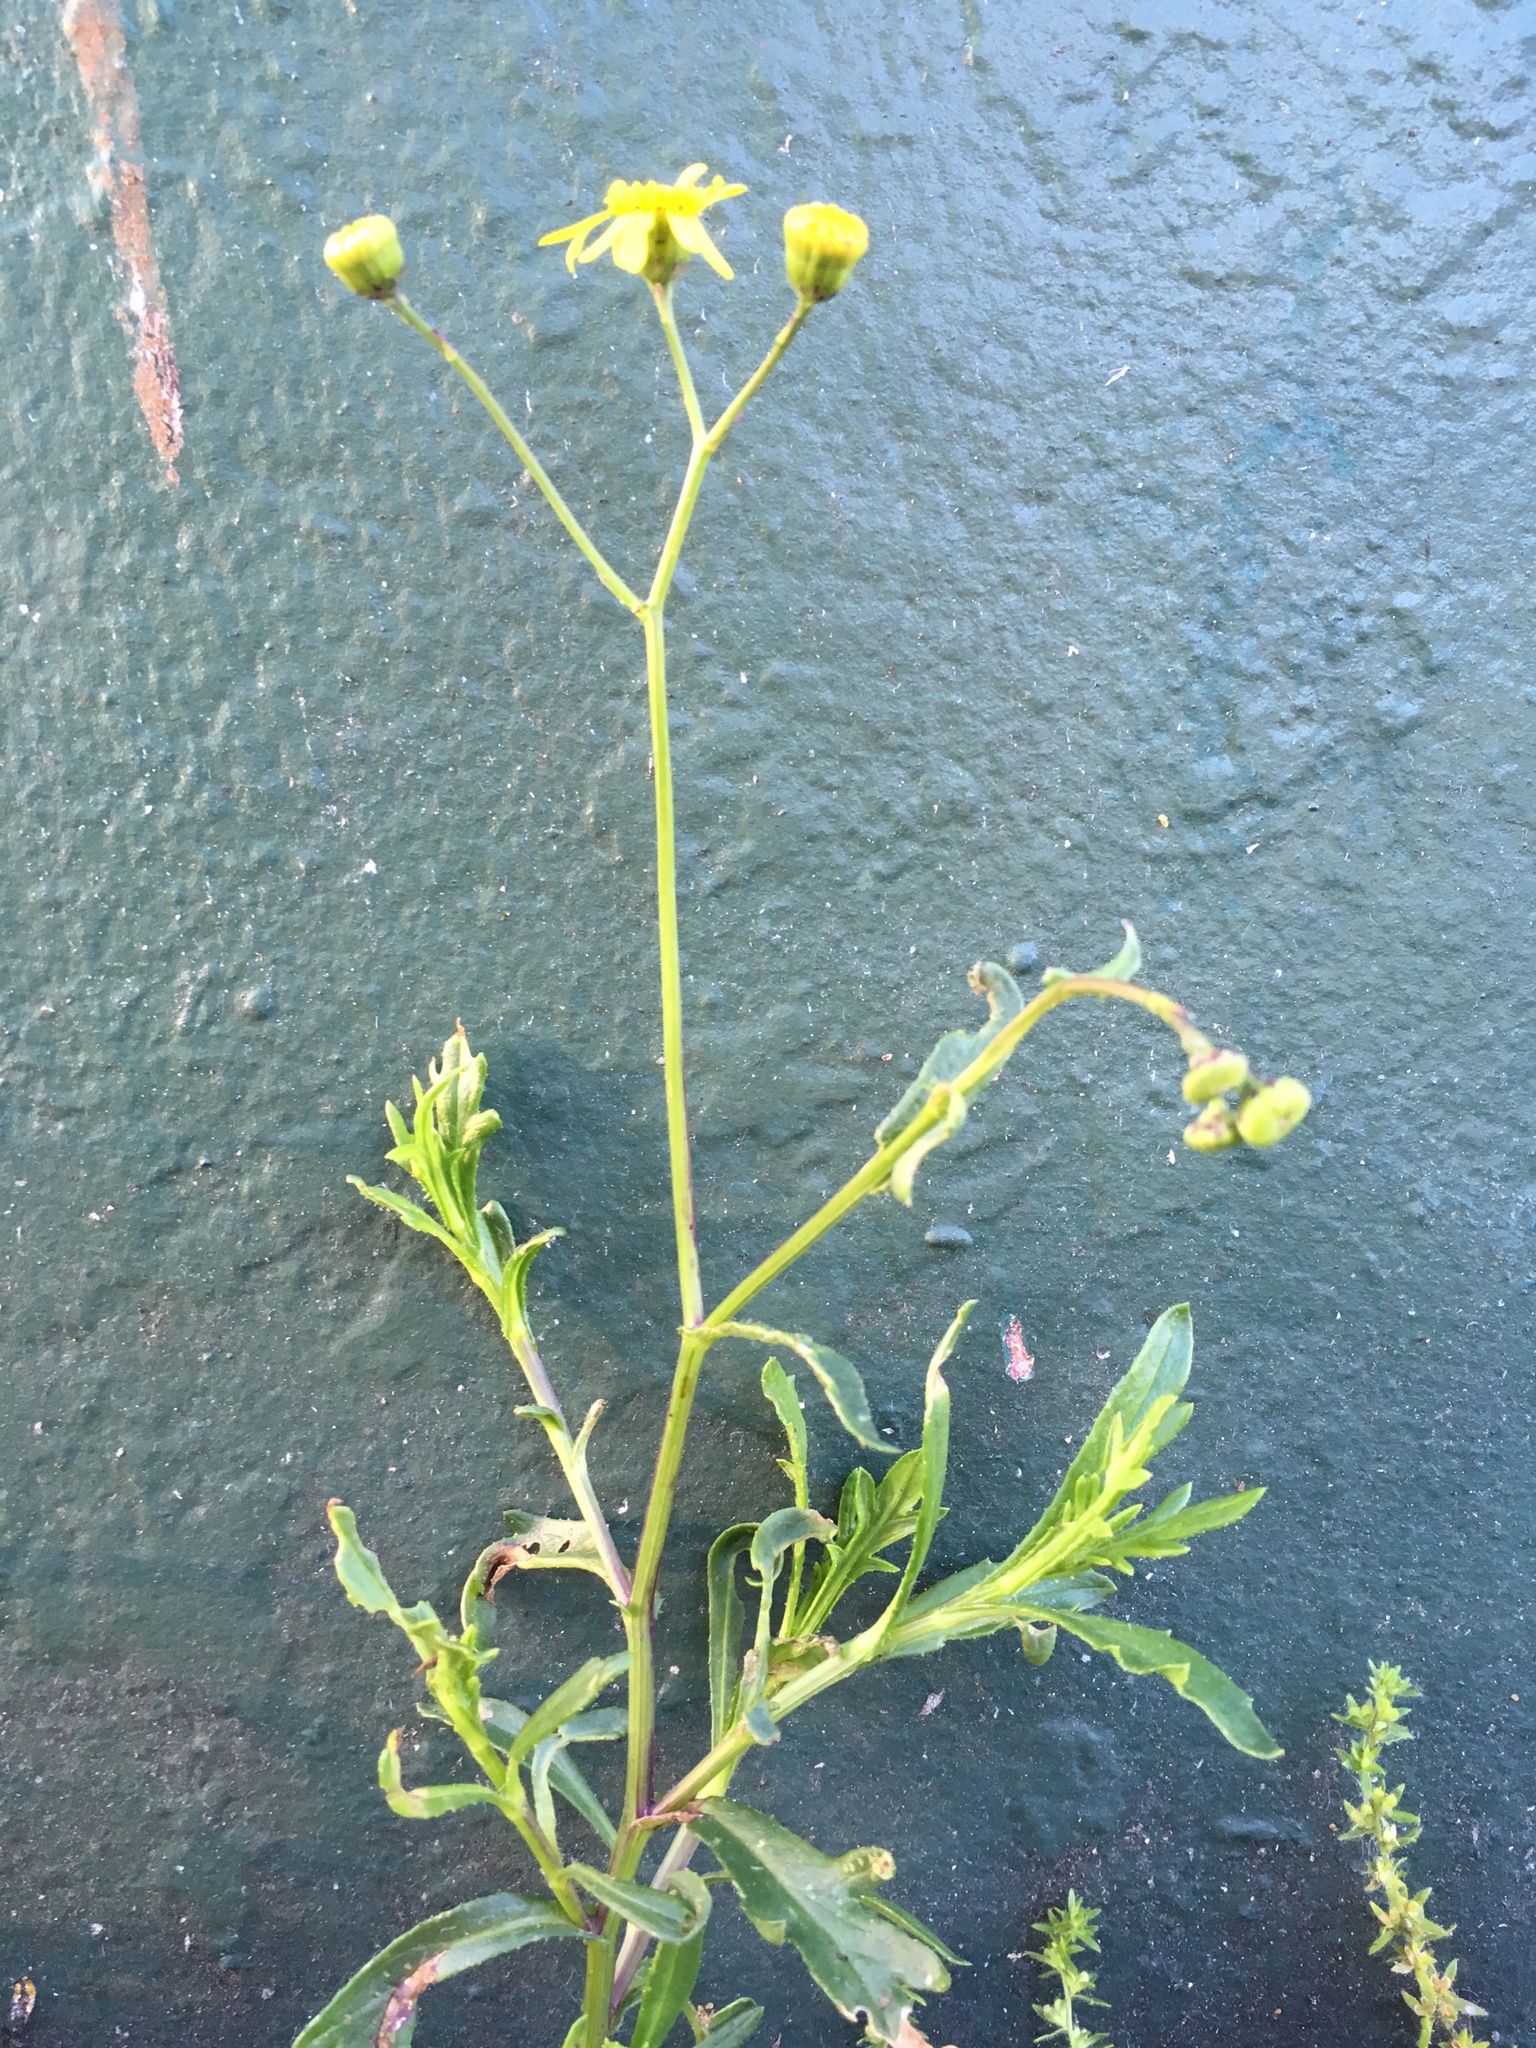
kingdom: Plantae
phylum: Tracheophyta
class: Magnoliopsida
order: Asterales
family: Asteraceae
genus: Senecio
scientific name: Senecio skirrhodon
